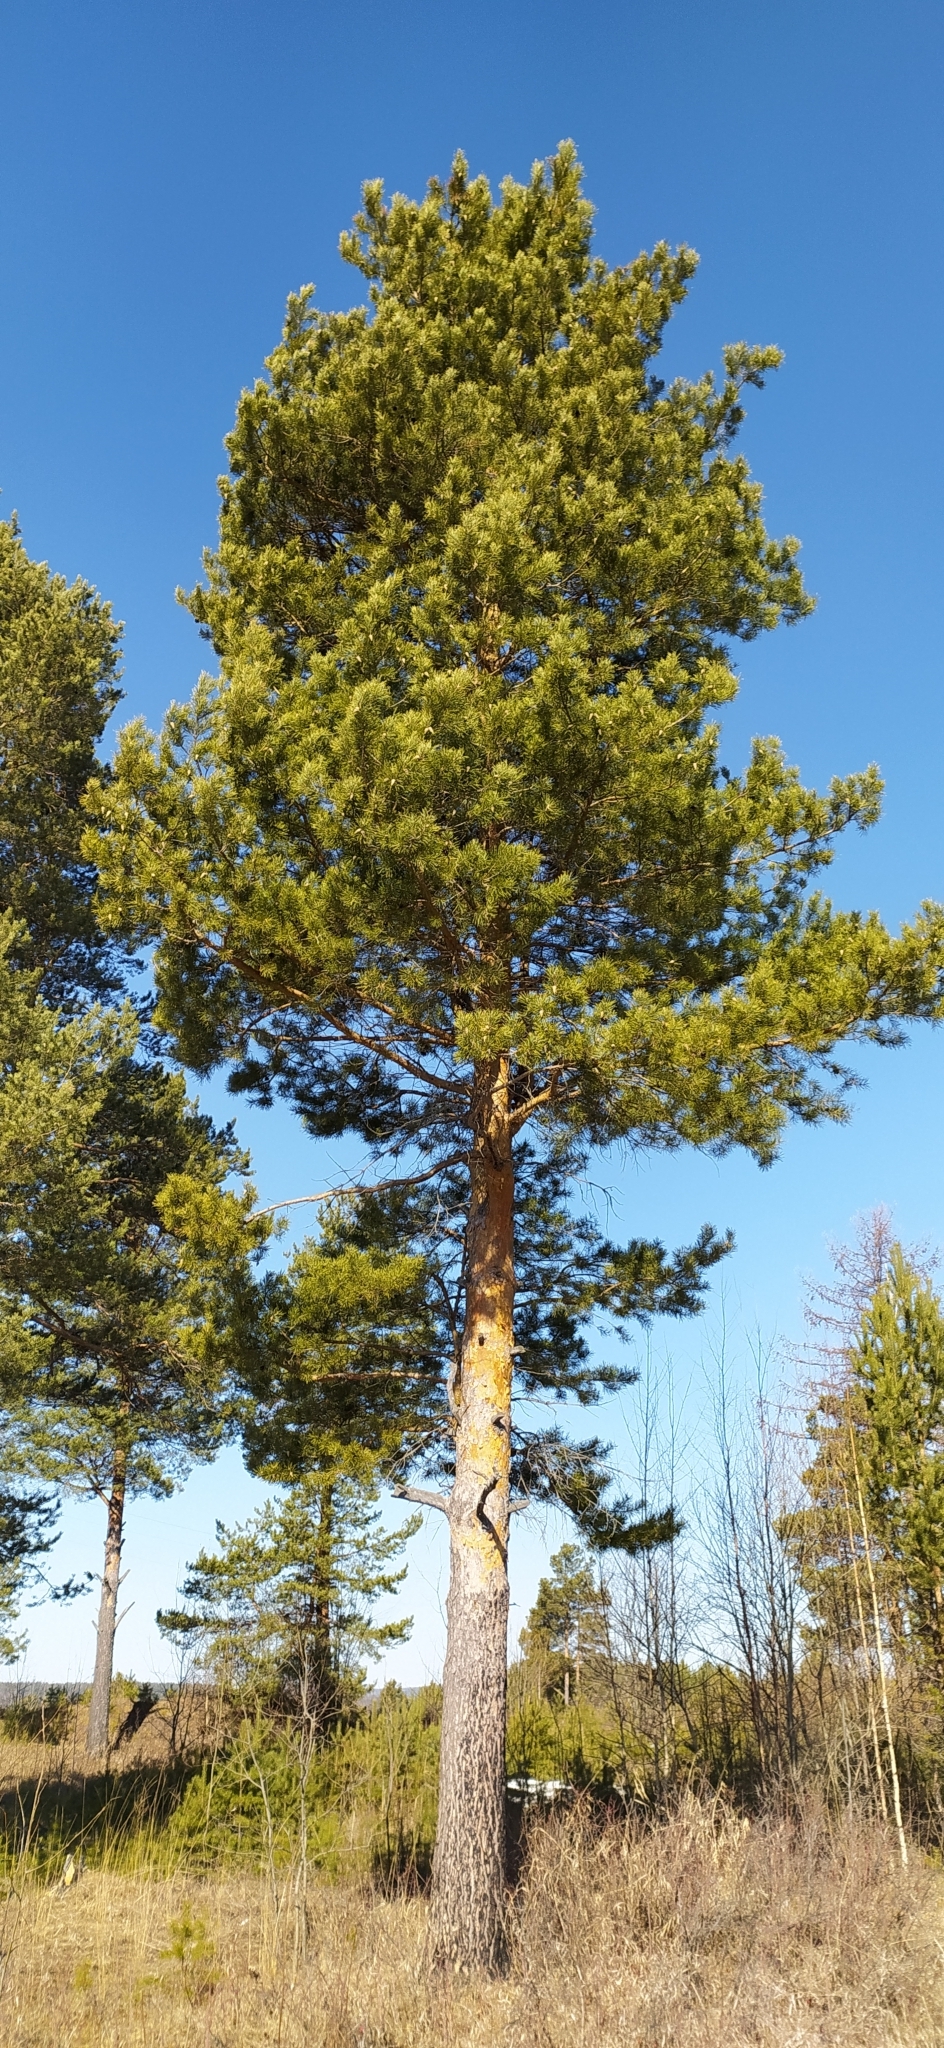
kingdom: Plantae
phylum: Tracheophyta
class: Pinopsida
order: Pinales
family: Pinaceae
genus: Pinus
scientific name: Pinus sylvestris
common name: Scots pine
